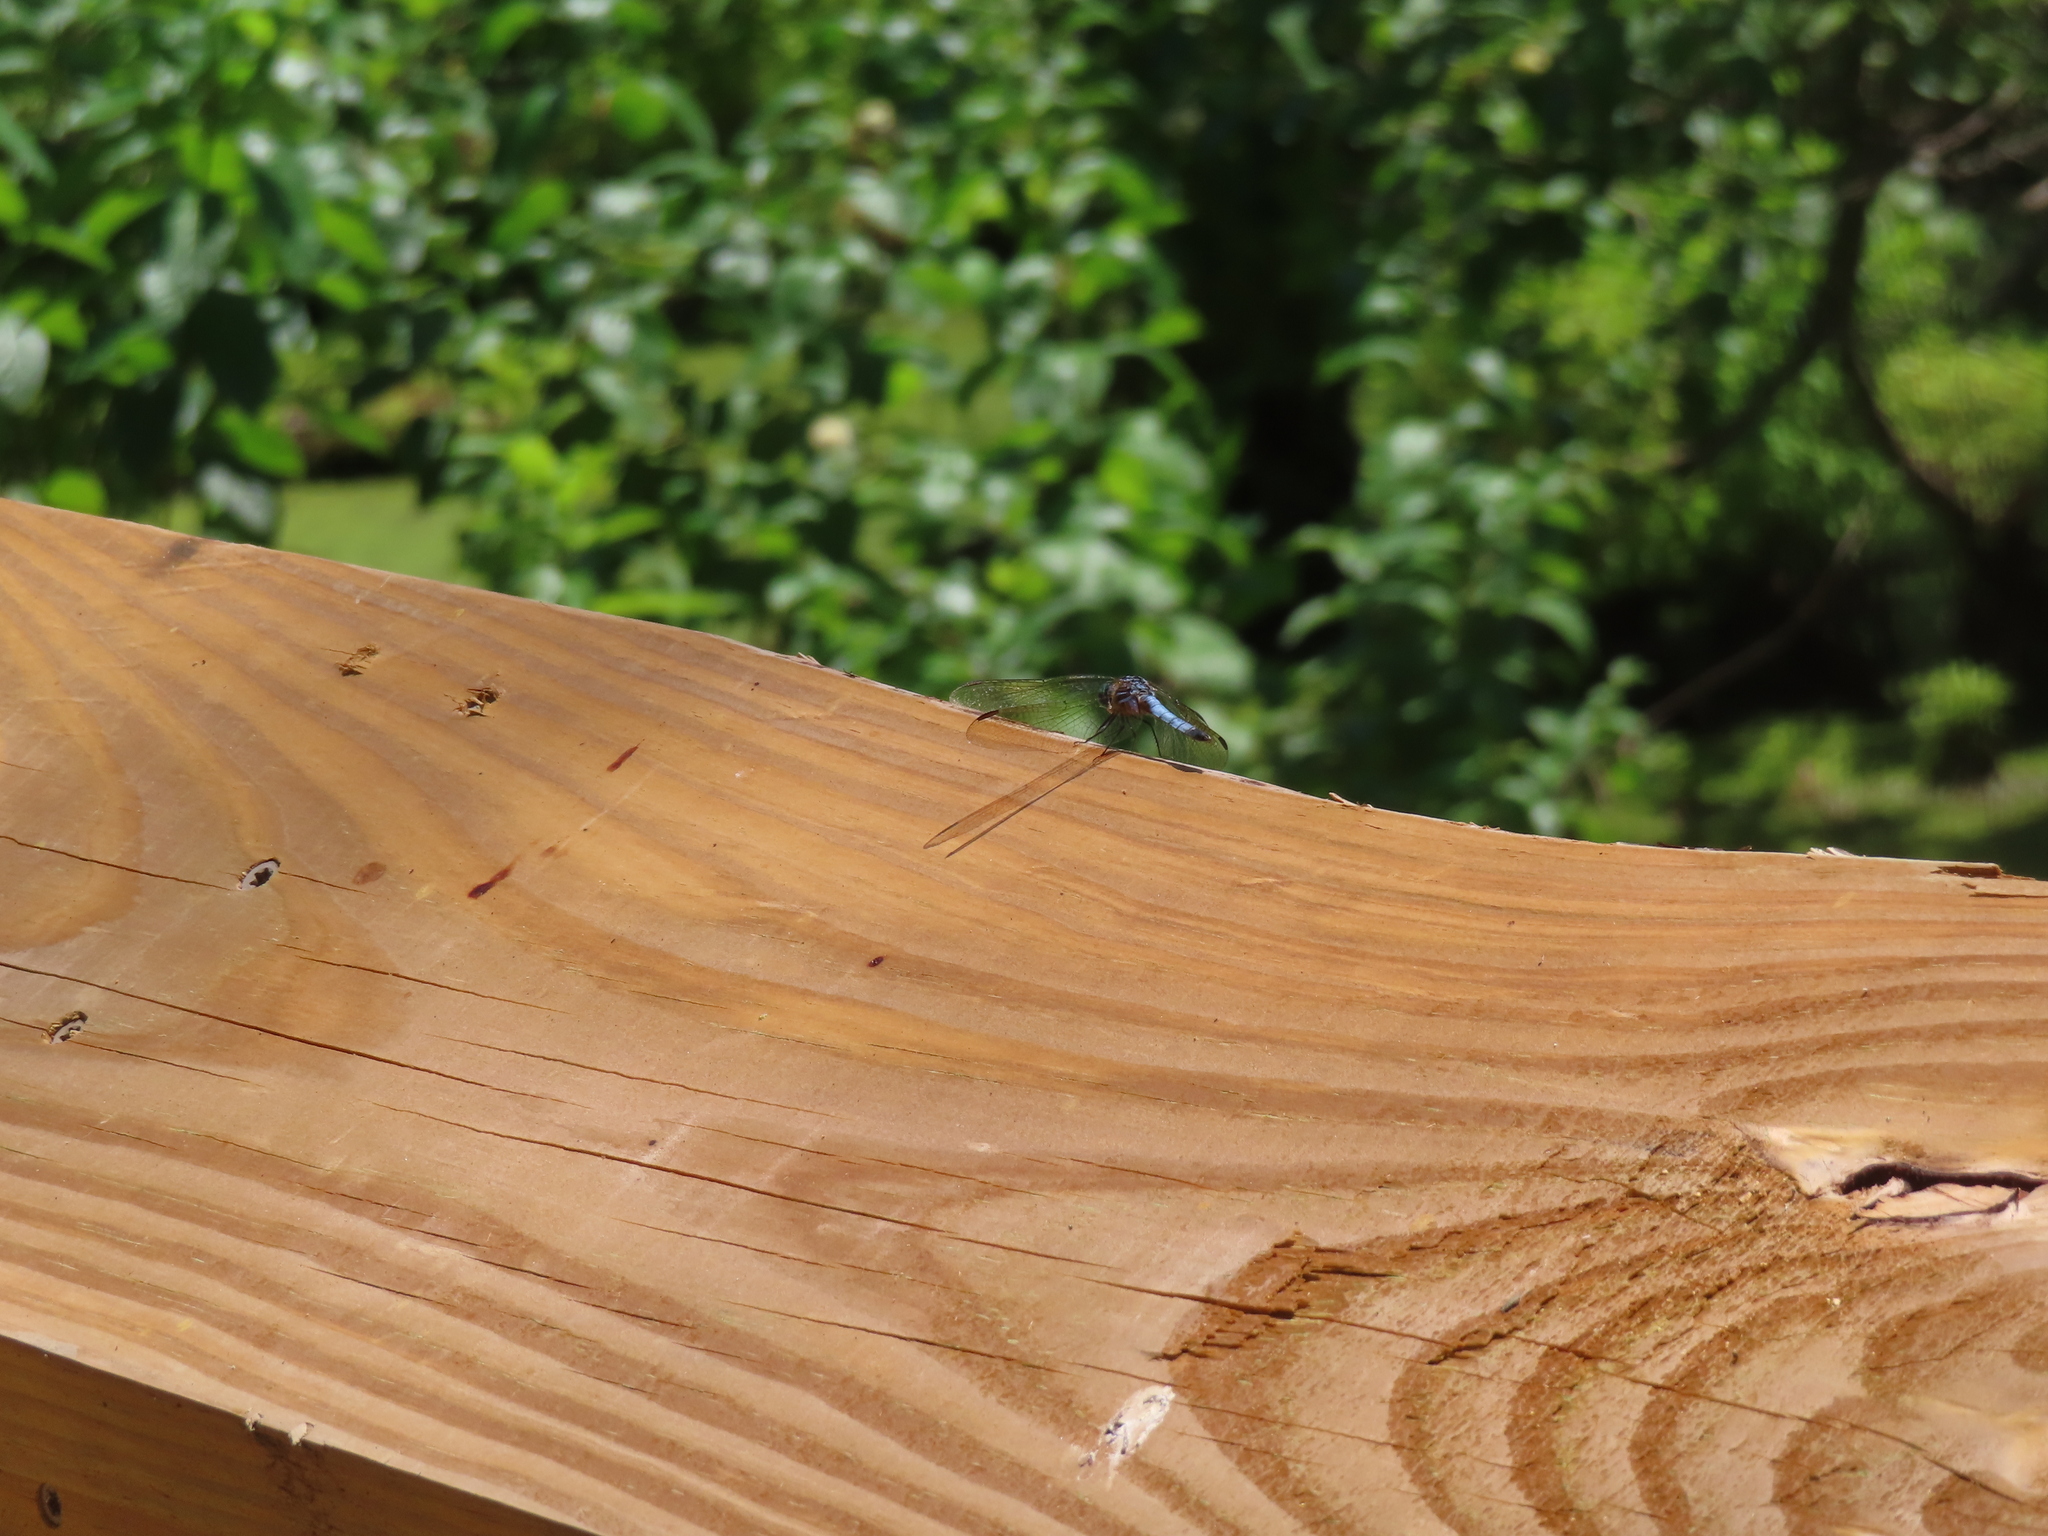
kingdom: Animalia
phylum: Arthropoda
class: Insecta
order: Odonata
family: Libellulidae
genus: Erythemis
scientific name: Erythemis simplicicollis
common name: Eastern pondhawk
